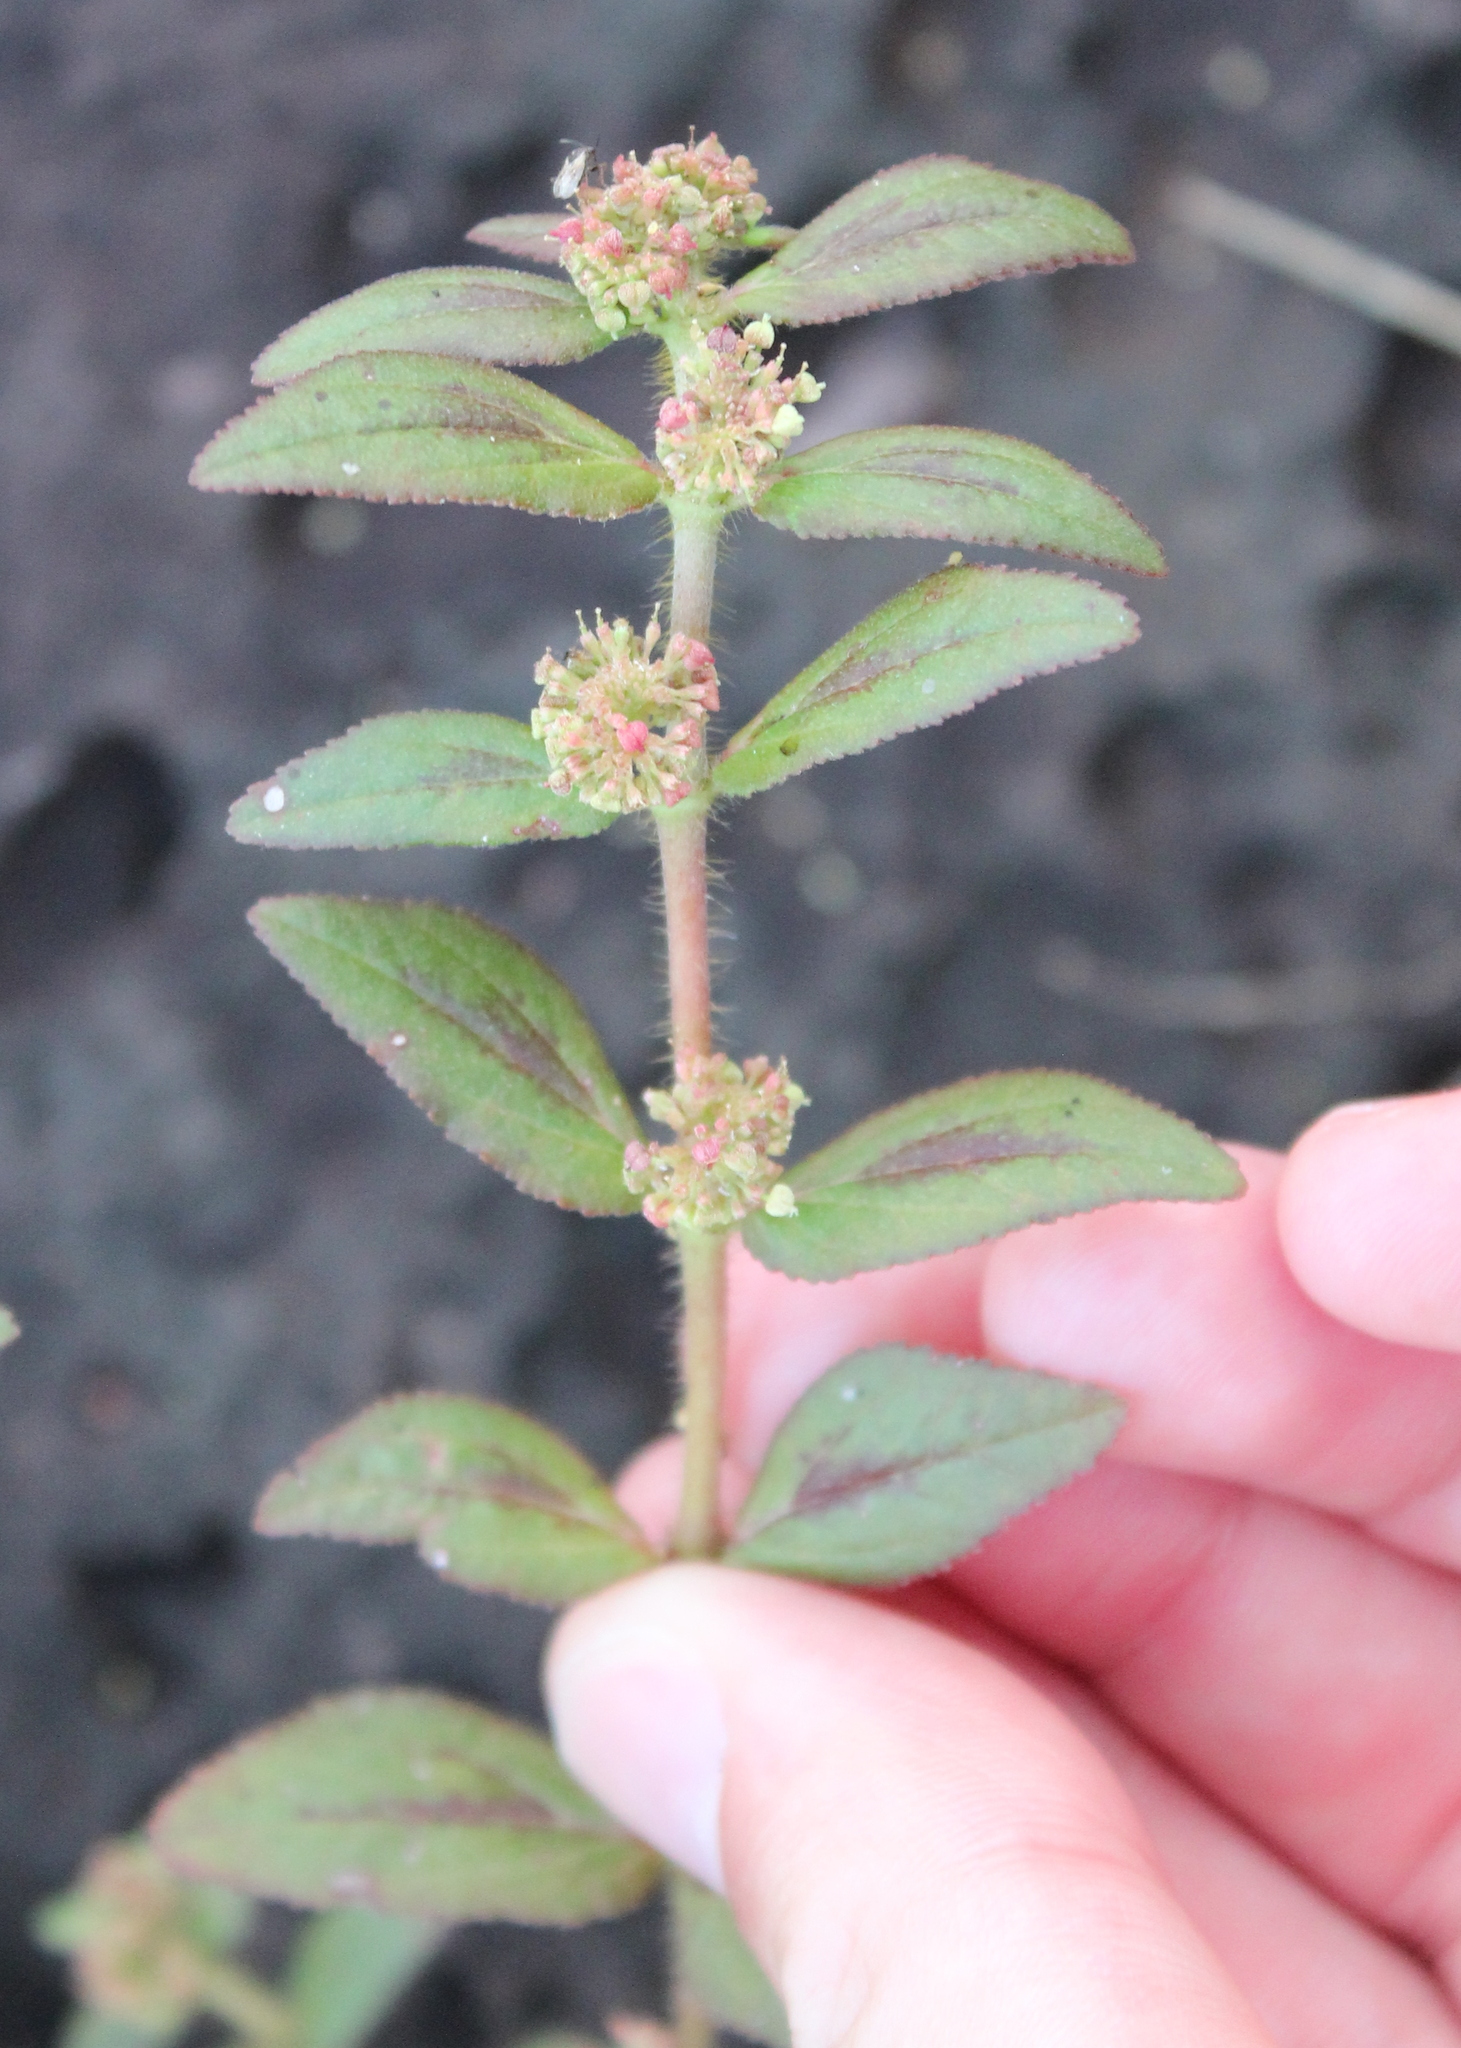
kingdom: Plantae
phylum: Tracheophyta
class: Magnoliopsida
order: Malpighiales
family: Euphorbiaceae
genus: Euphorbia
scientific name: Euphorbia hirta
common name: Pillpod sandmat
